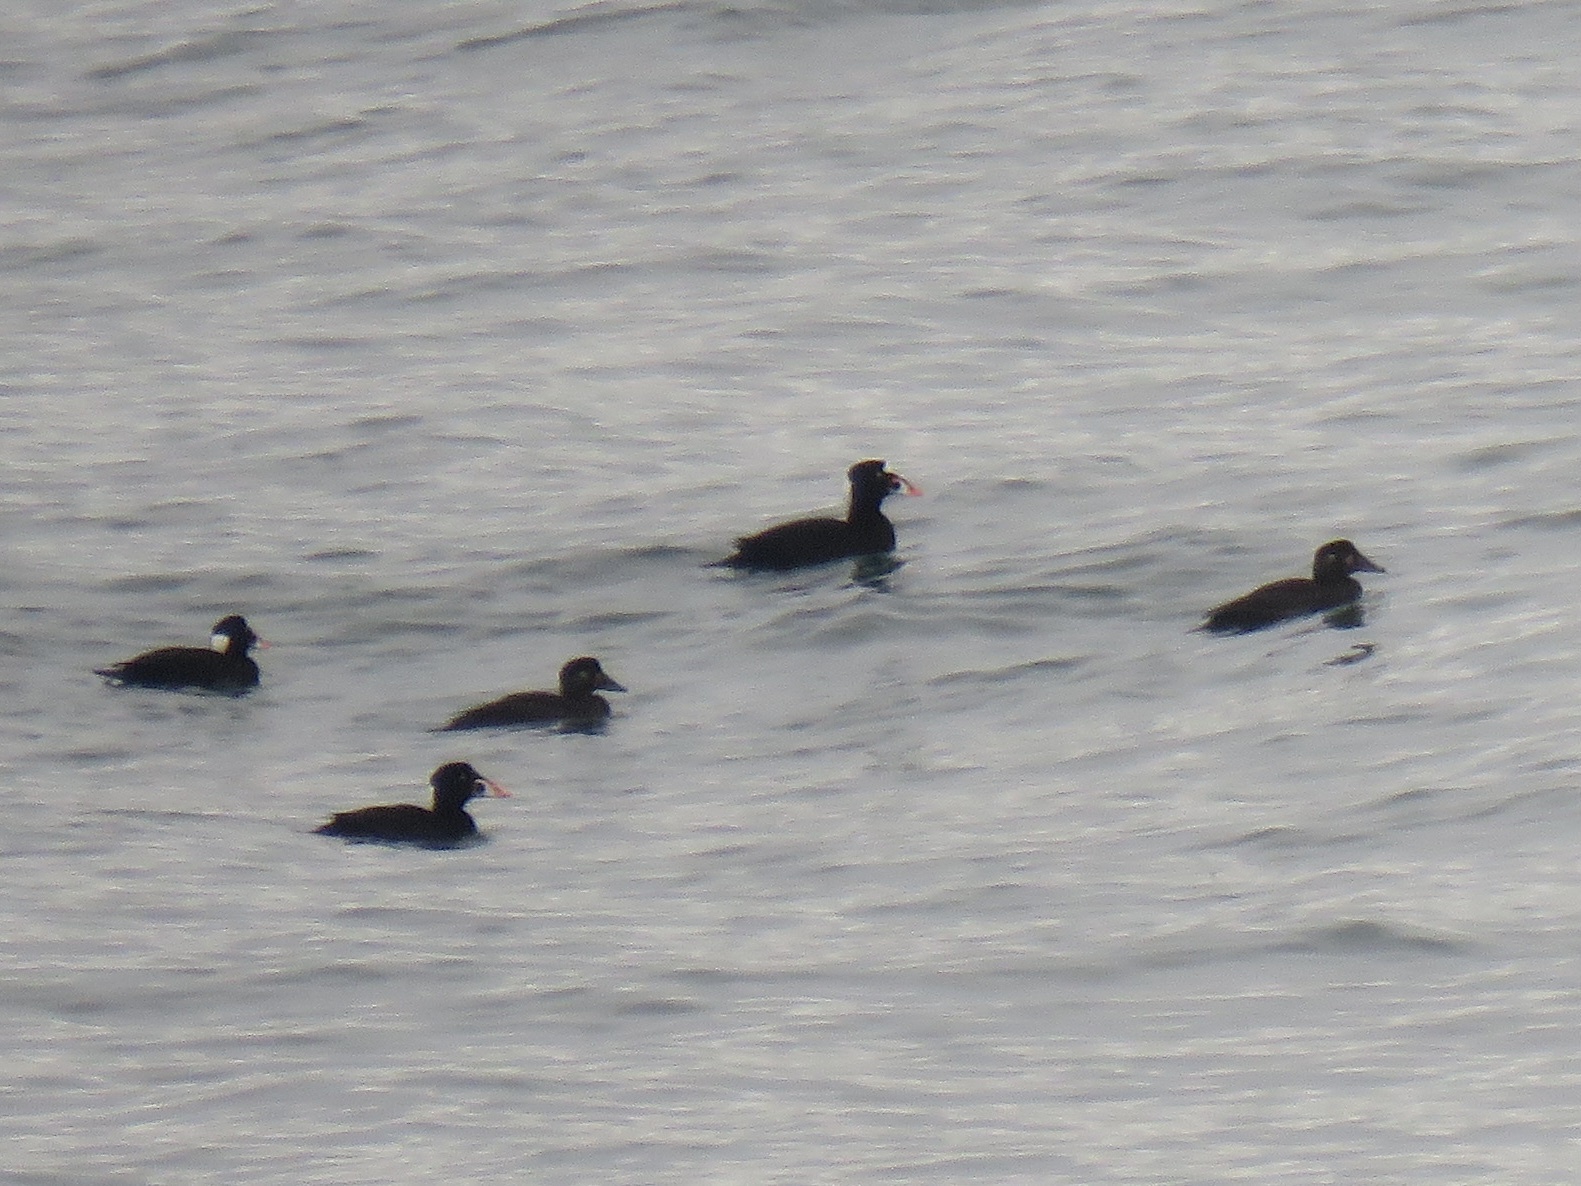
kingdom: Animalia
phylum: Chordata
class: Aves
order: Anseriformes
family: Anatidae
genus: Melanitta
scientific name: Melanitta perspicillata
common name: Surf scoter
